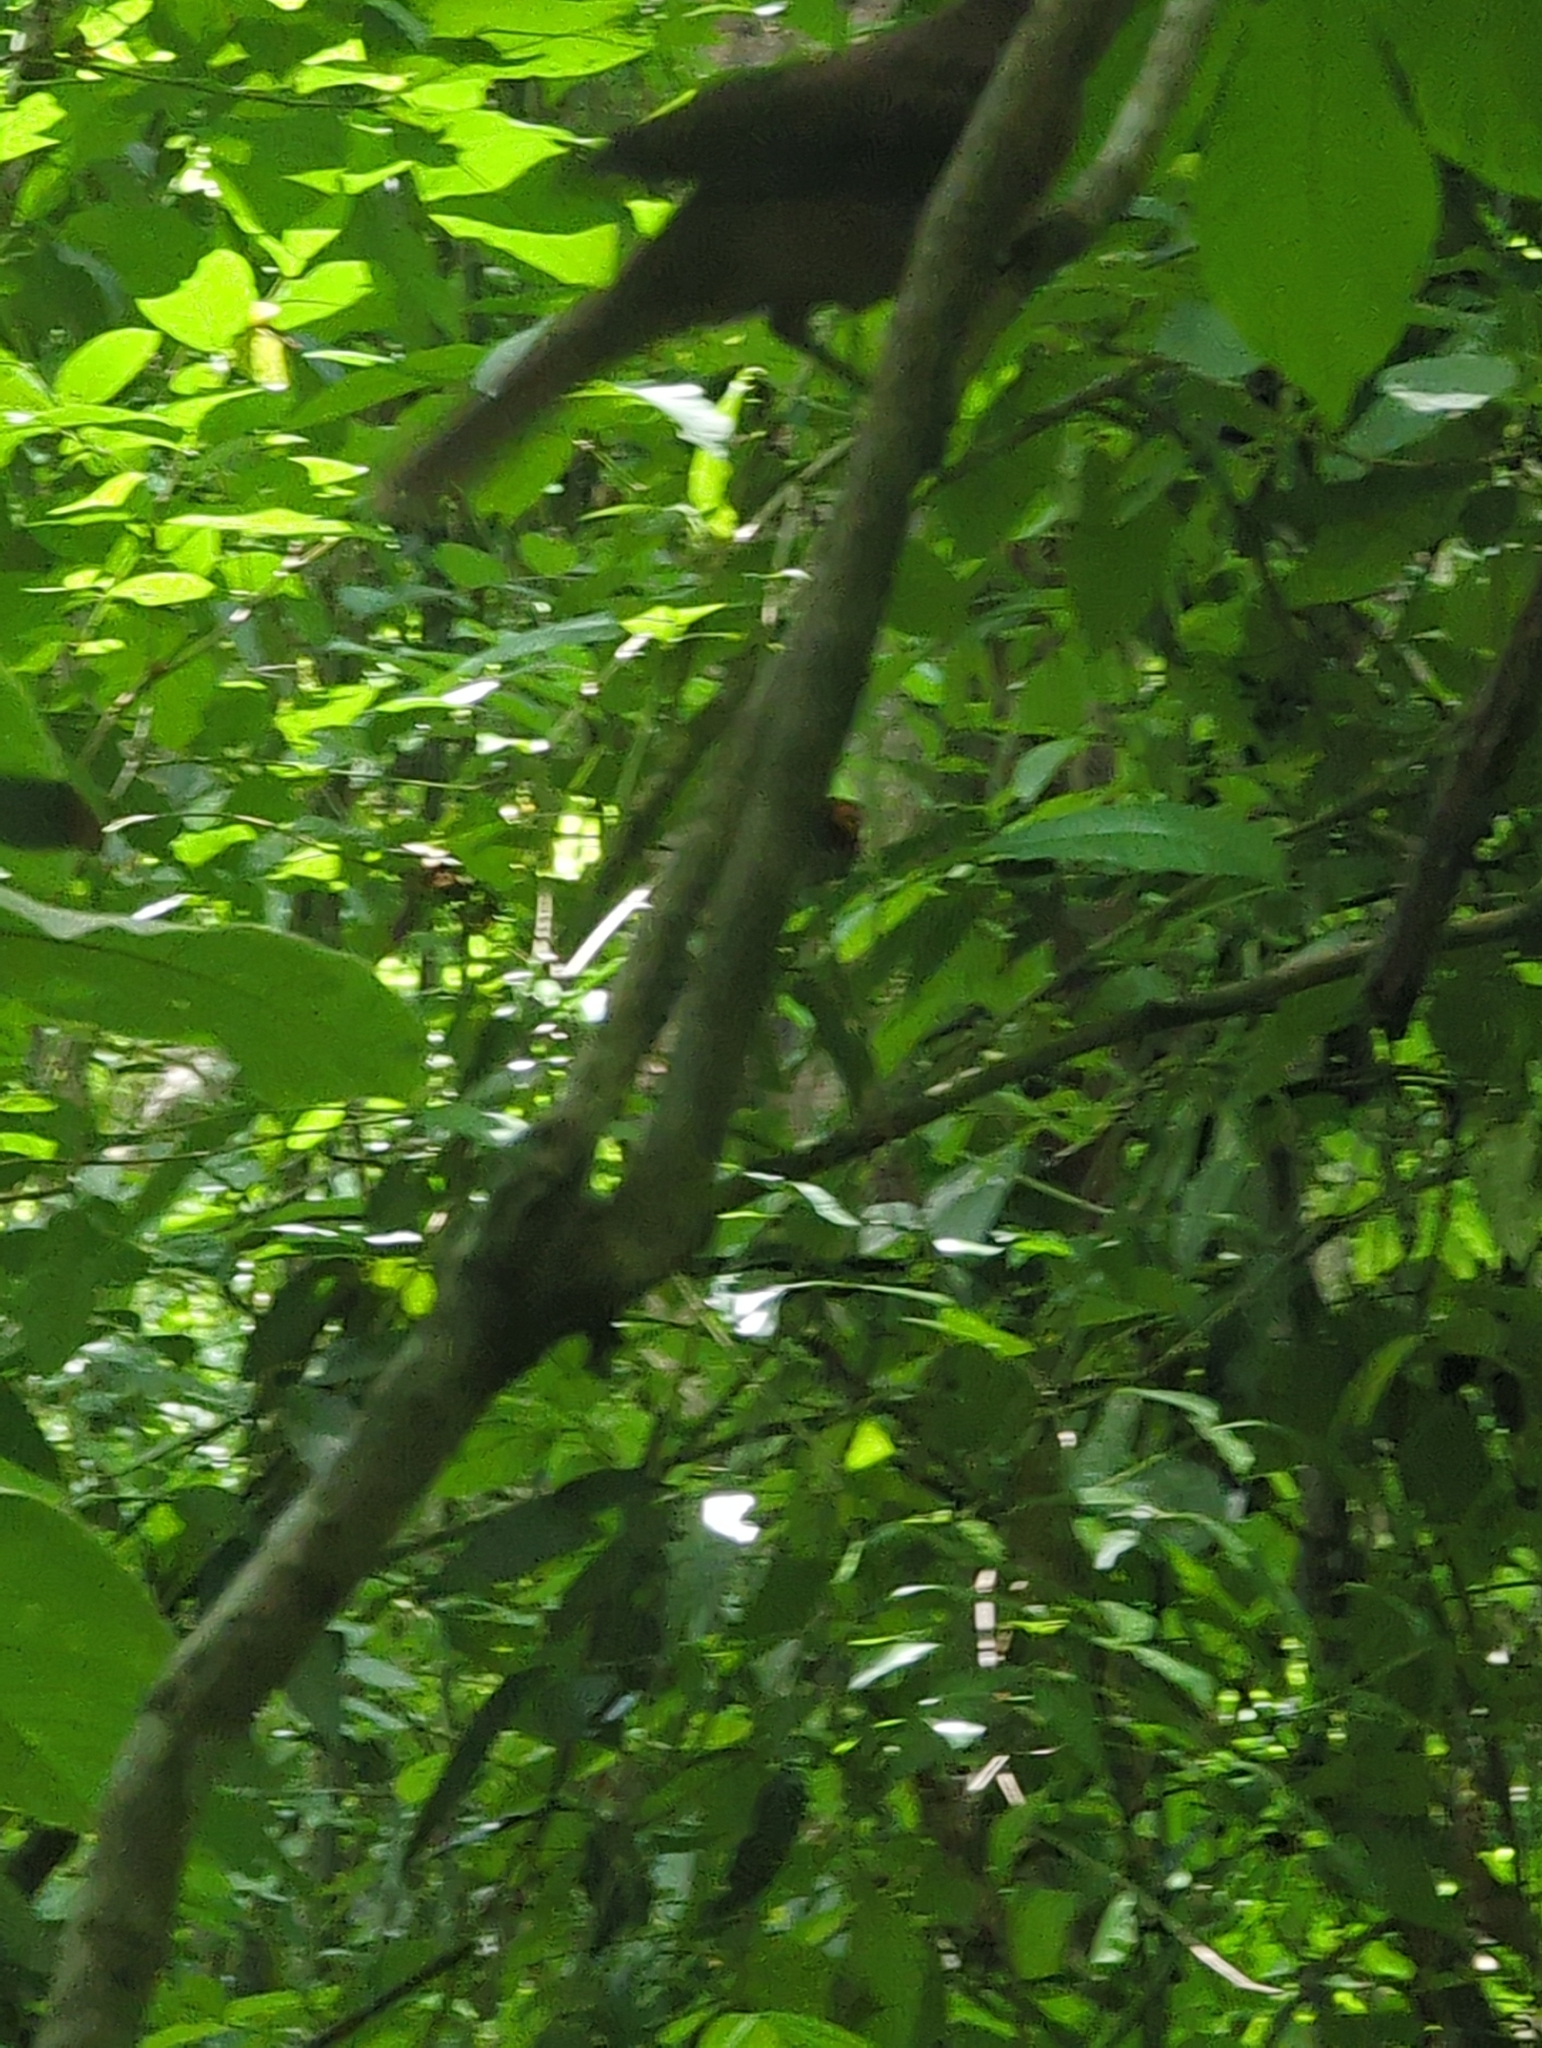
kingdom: Animalia
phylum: Chordata
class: Aves
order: Passeriformes
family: Turdidae
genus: Turdus
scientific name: Turdus grayi
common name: Clay-colored thrush
